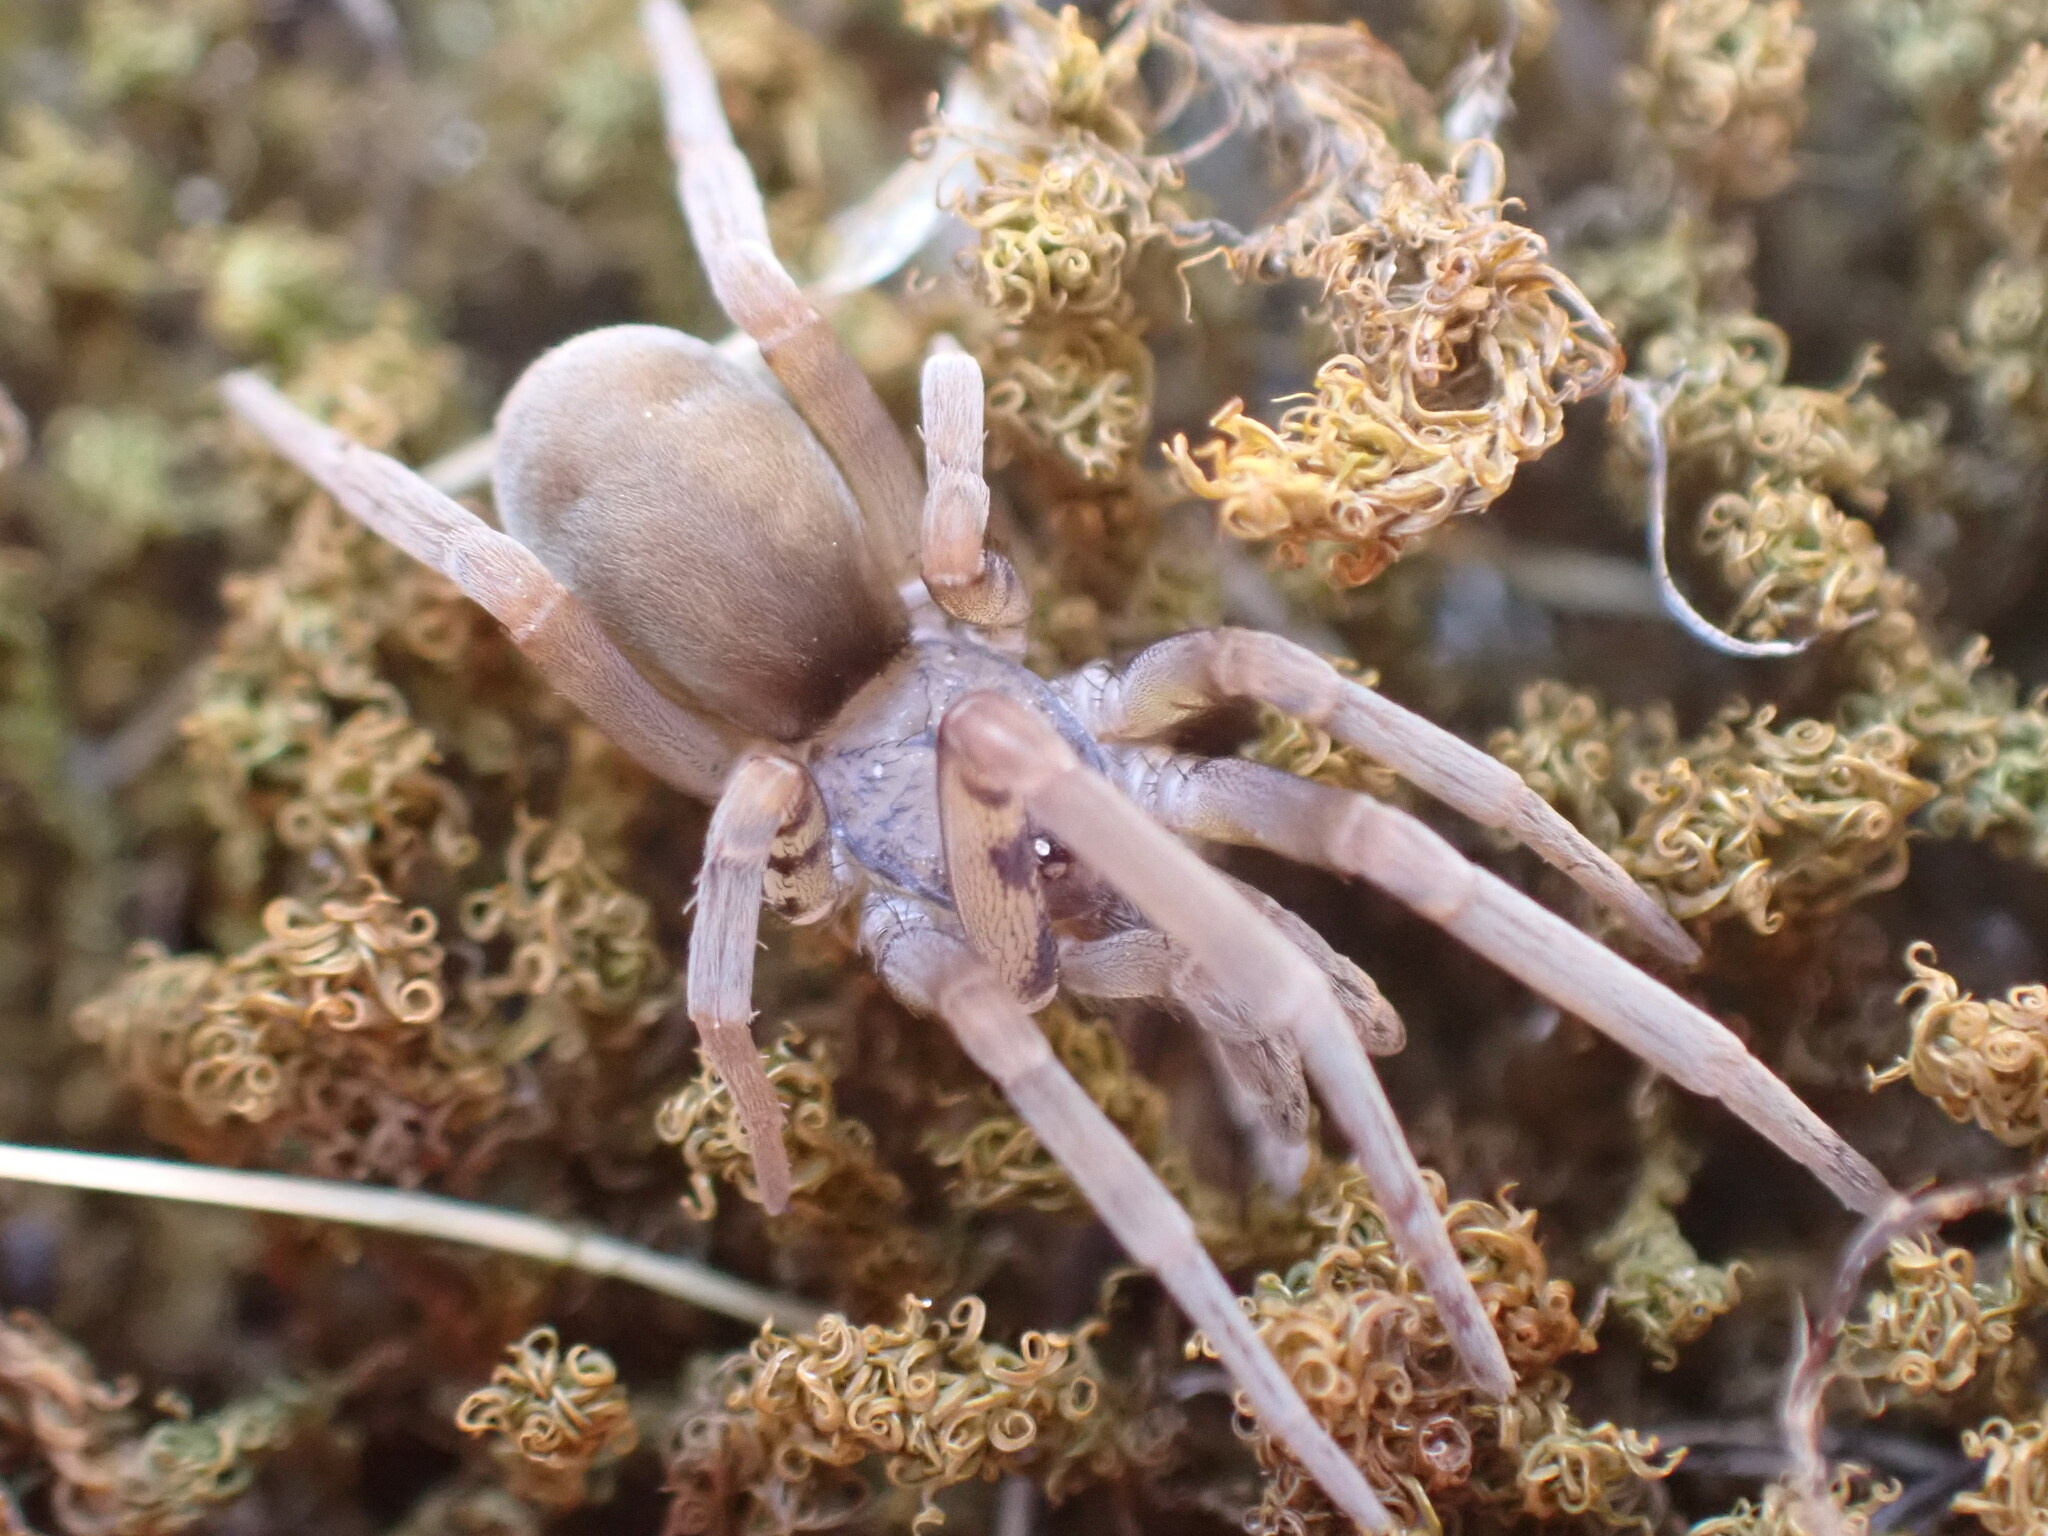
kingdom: Animalia
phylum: Arthropoda
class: Arachnida
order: Araneae
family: Filistatidae
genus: Filistata
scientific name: Filistata insidiatrix
